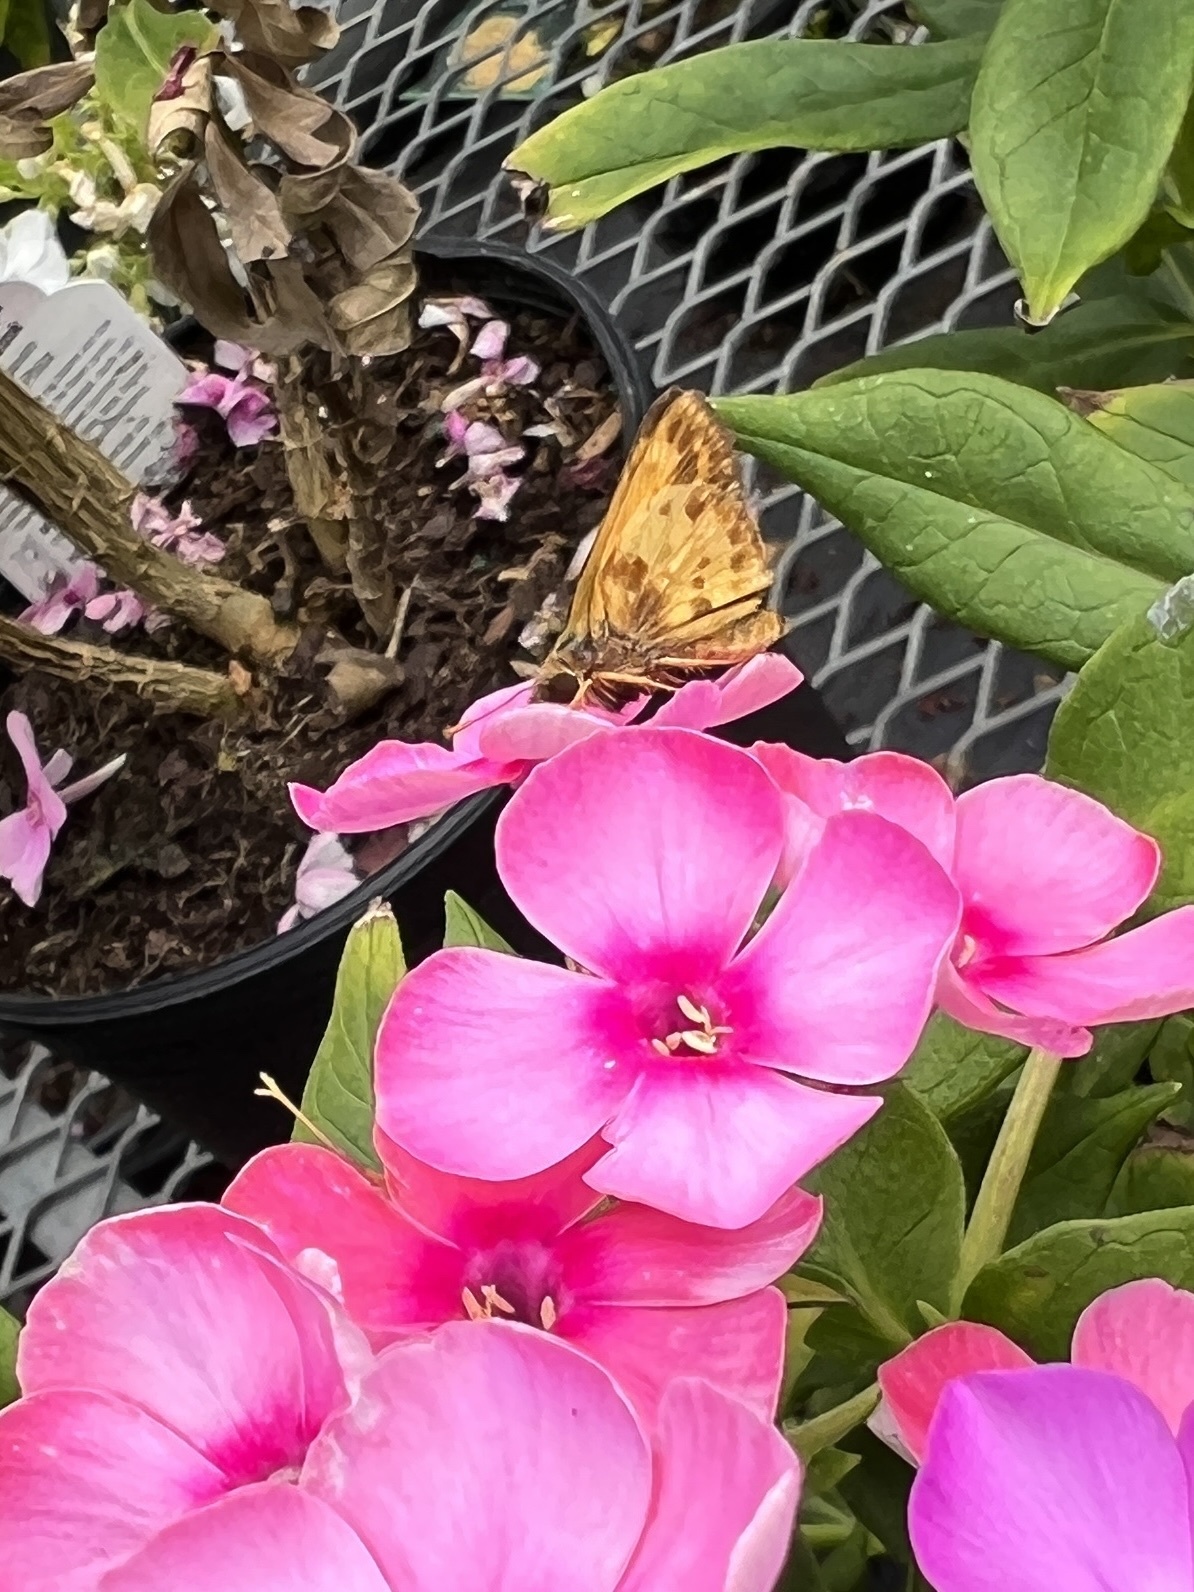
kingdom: Animalia
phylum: Arthropoda
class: Insecta
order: Lepidoptera
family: Hesperiidae
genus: Lon
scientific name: Lon zabulon
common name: Zabulon skipper
